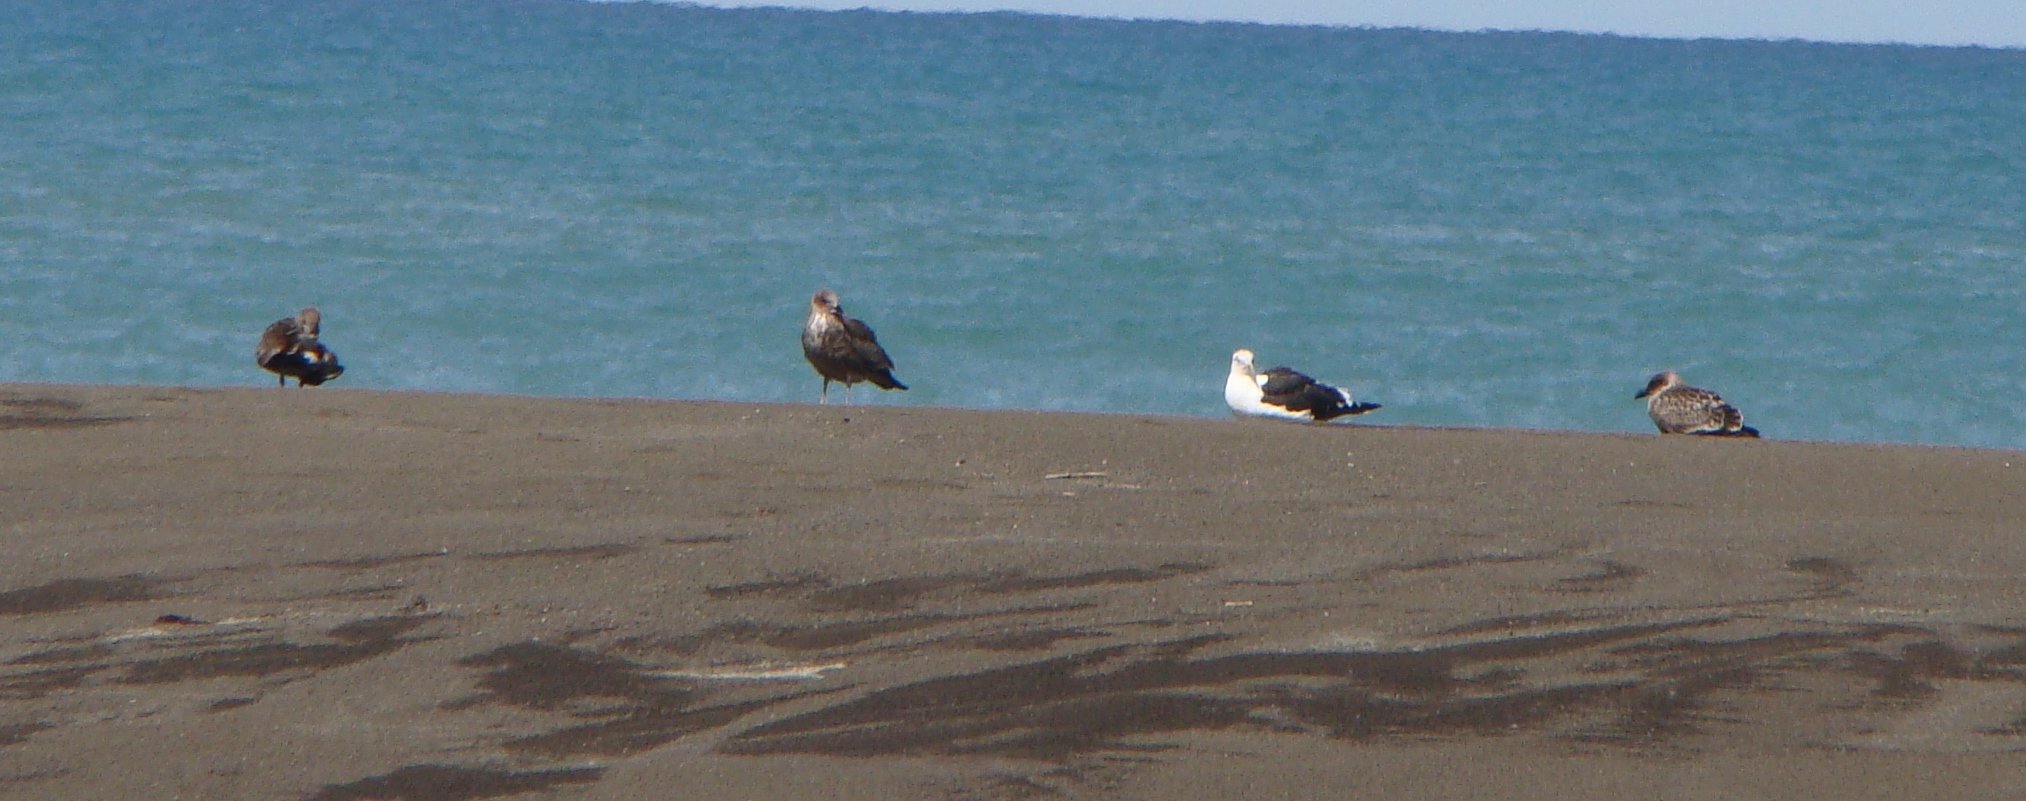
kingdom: Animalia
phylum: Chordata
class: Aves
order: Charadriiformes
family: Laridae
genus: Larus
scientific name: Larus dominicanus
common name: Kelp gull
